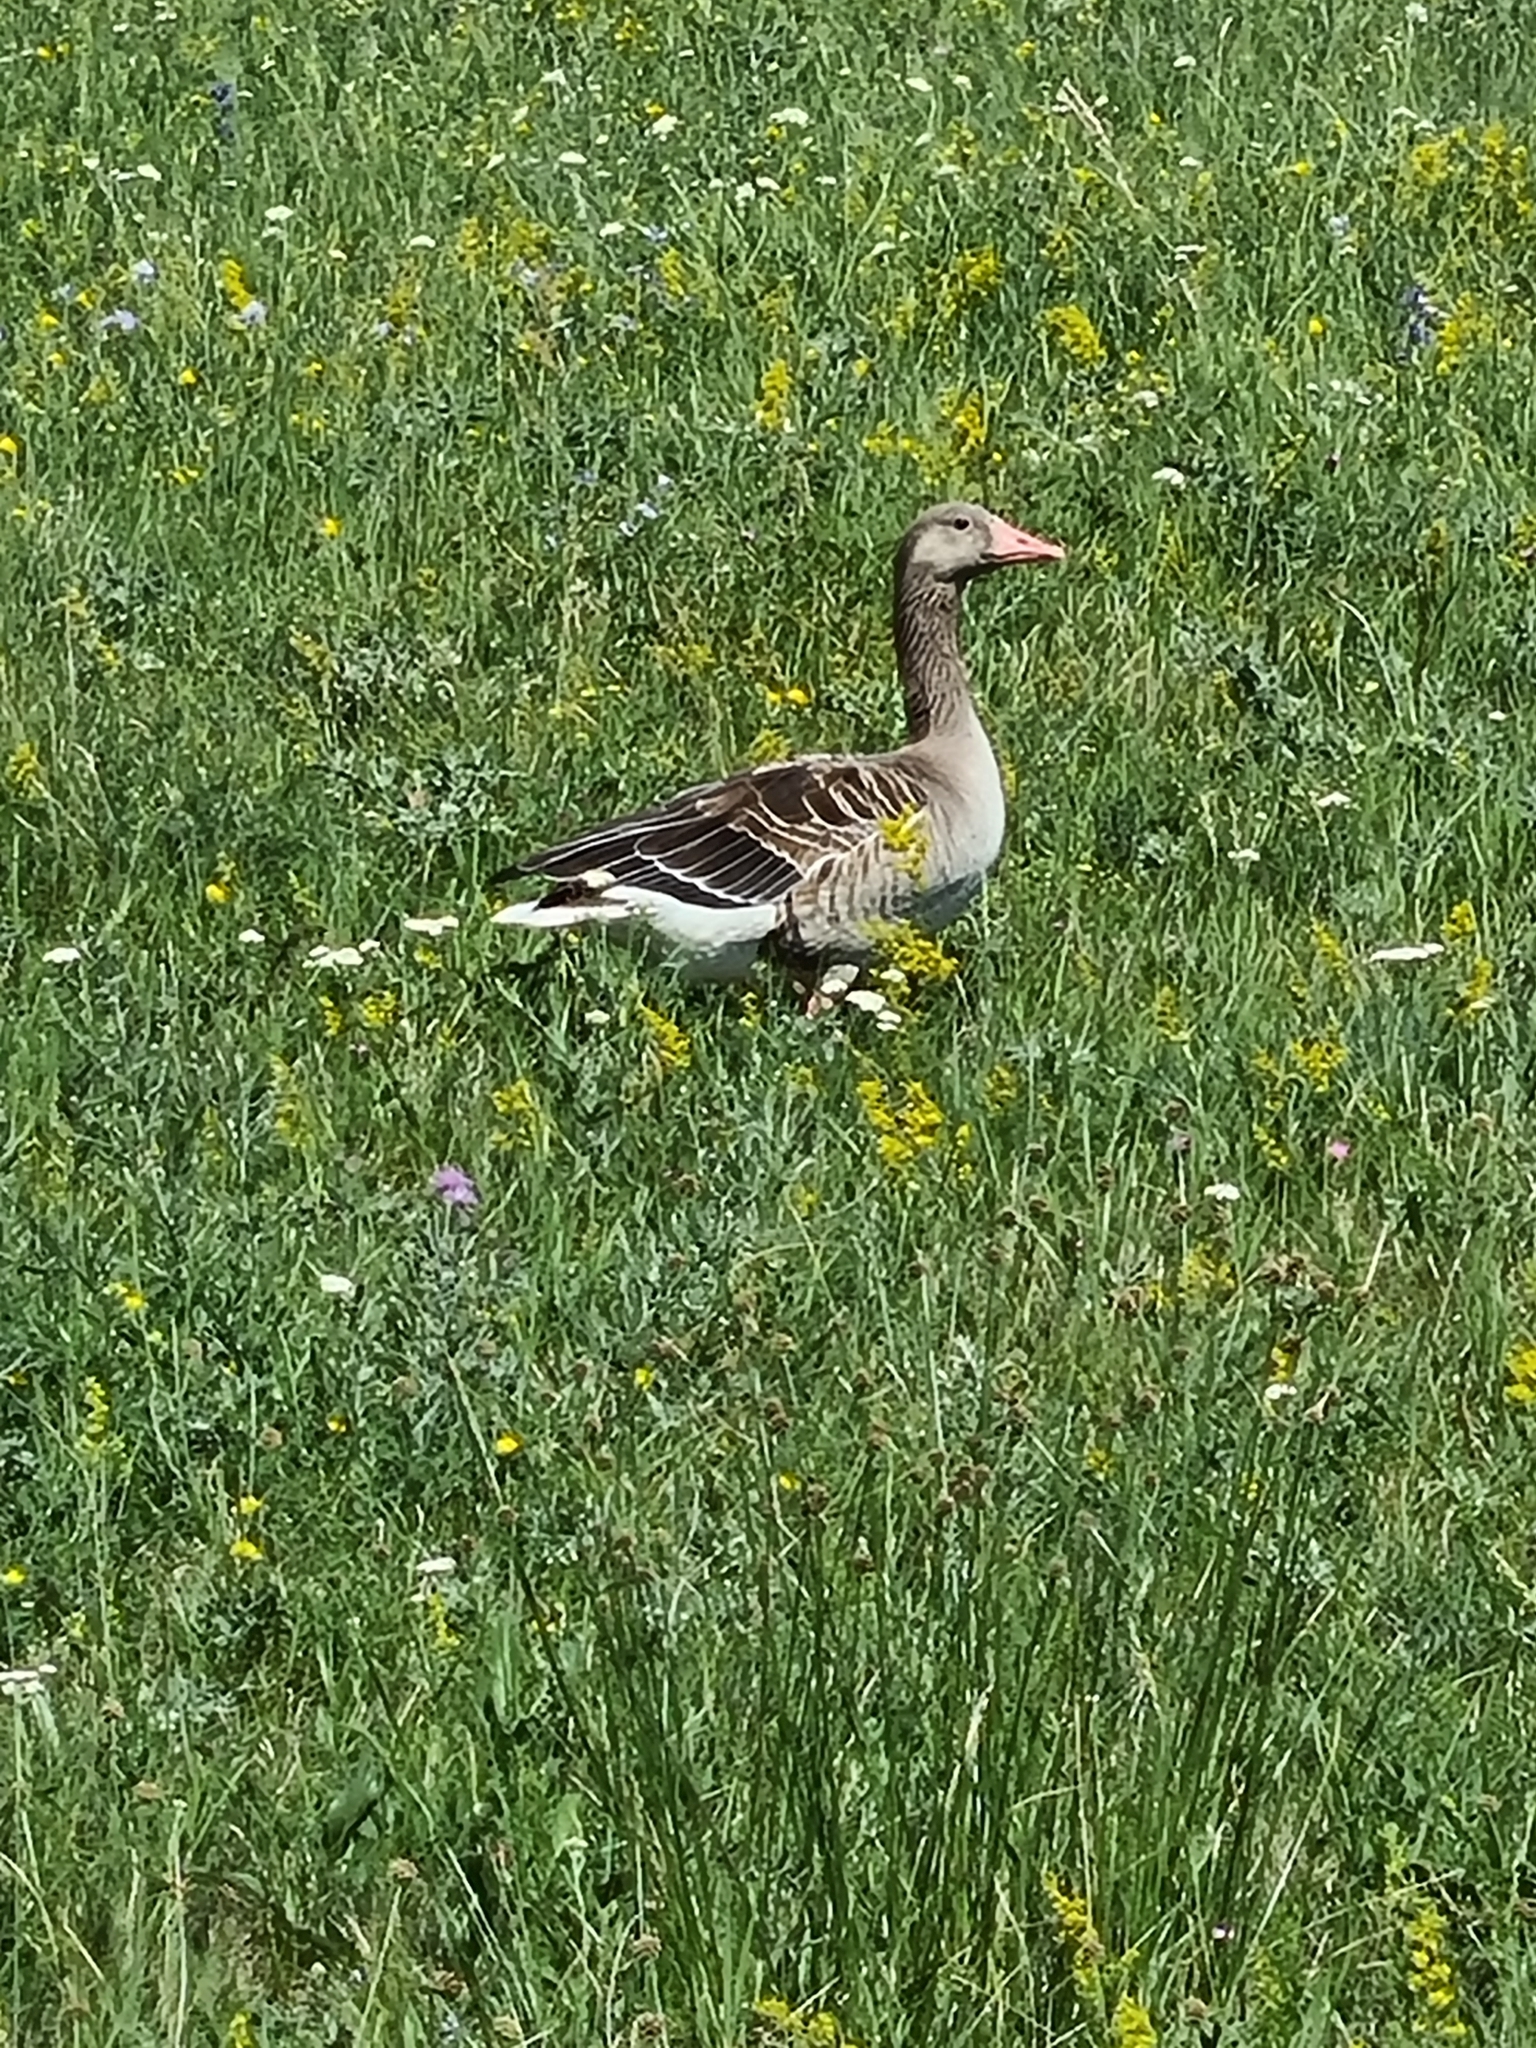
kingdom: Animalia
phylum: Chordata
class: Aves
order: Anseriformes
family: Anatidae
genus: Anser
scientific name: Anser anser
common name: Greylag goose
